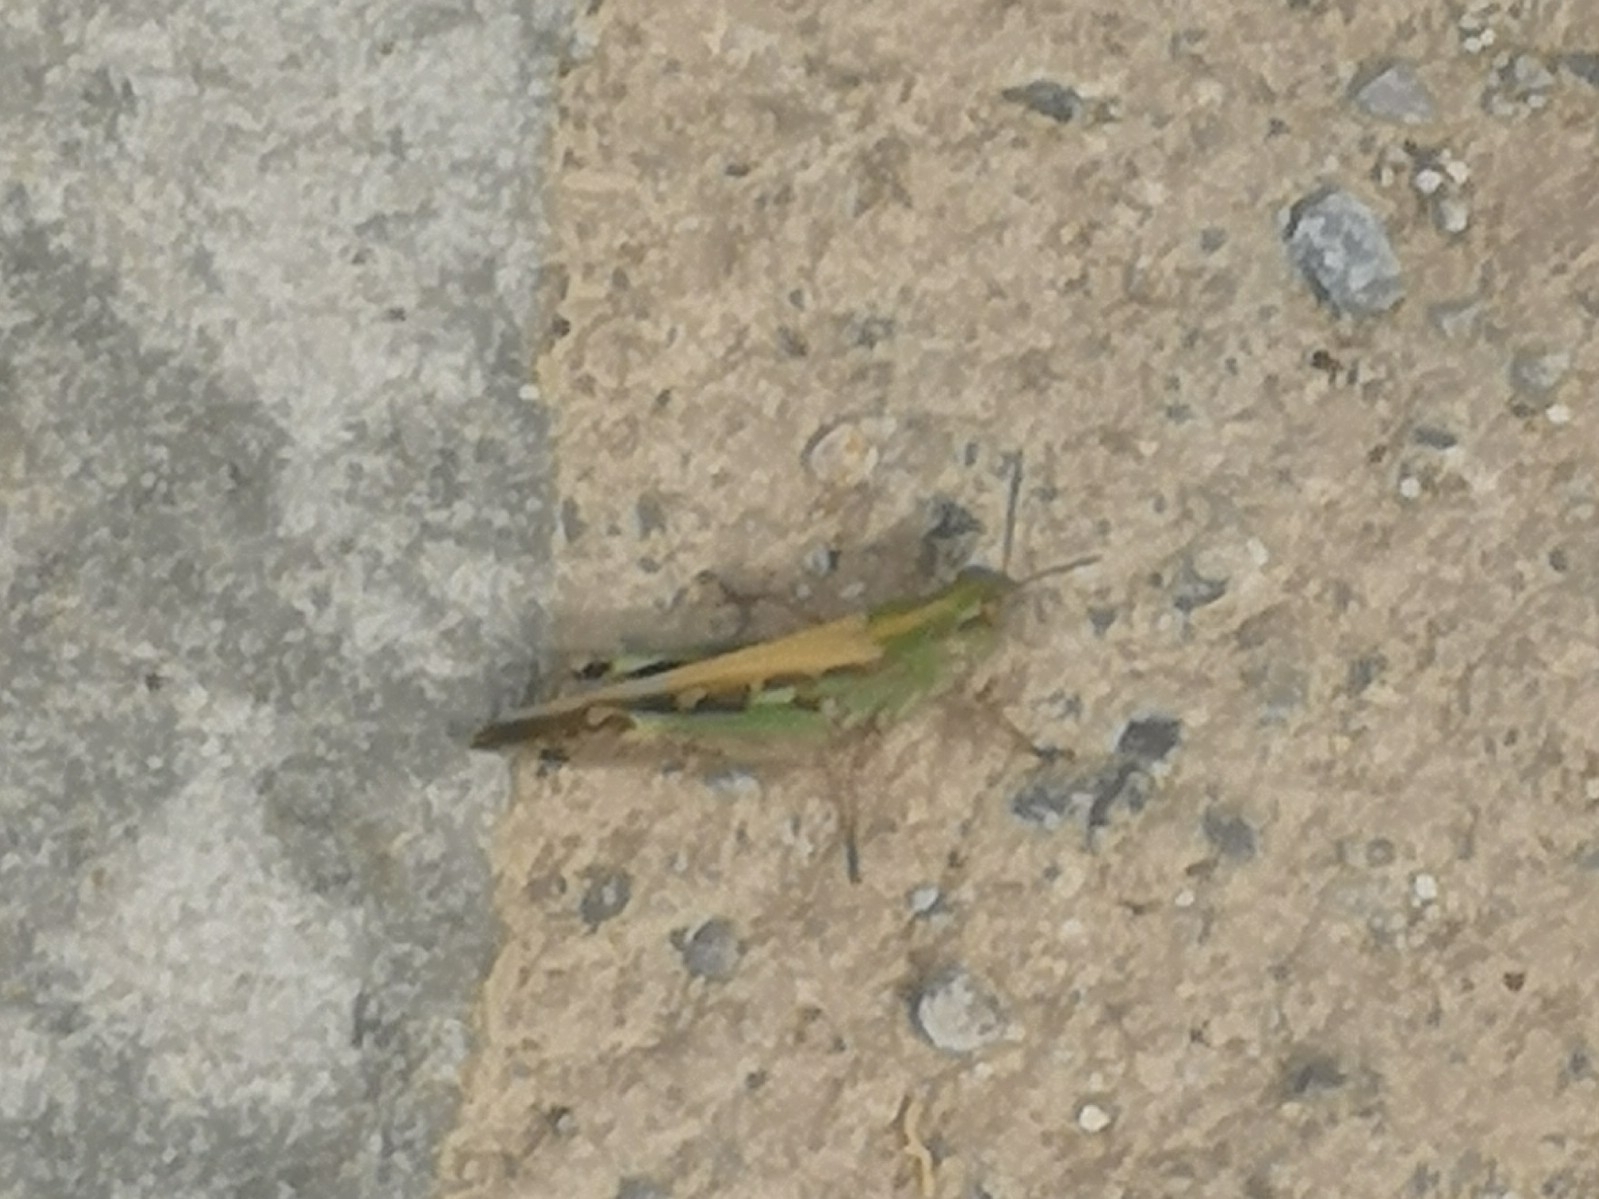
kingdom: Animalia
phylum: Arthropoda
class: Insecta
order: Orthoptera
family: Acrididae
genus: Aiolopus
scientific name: Aiolopus strepens
